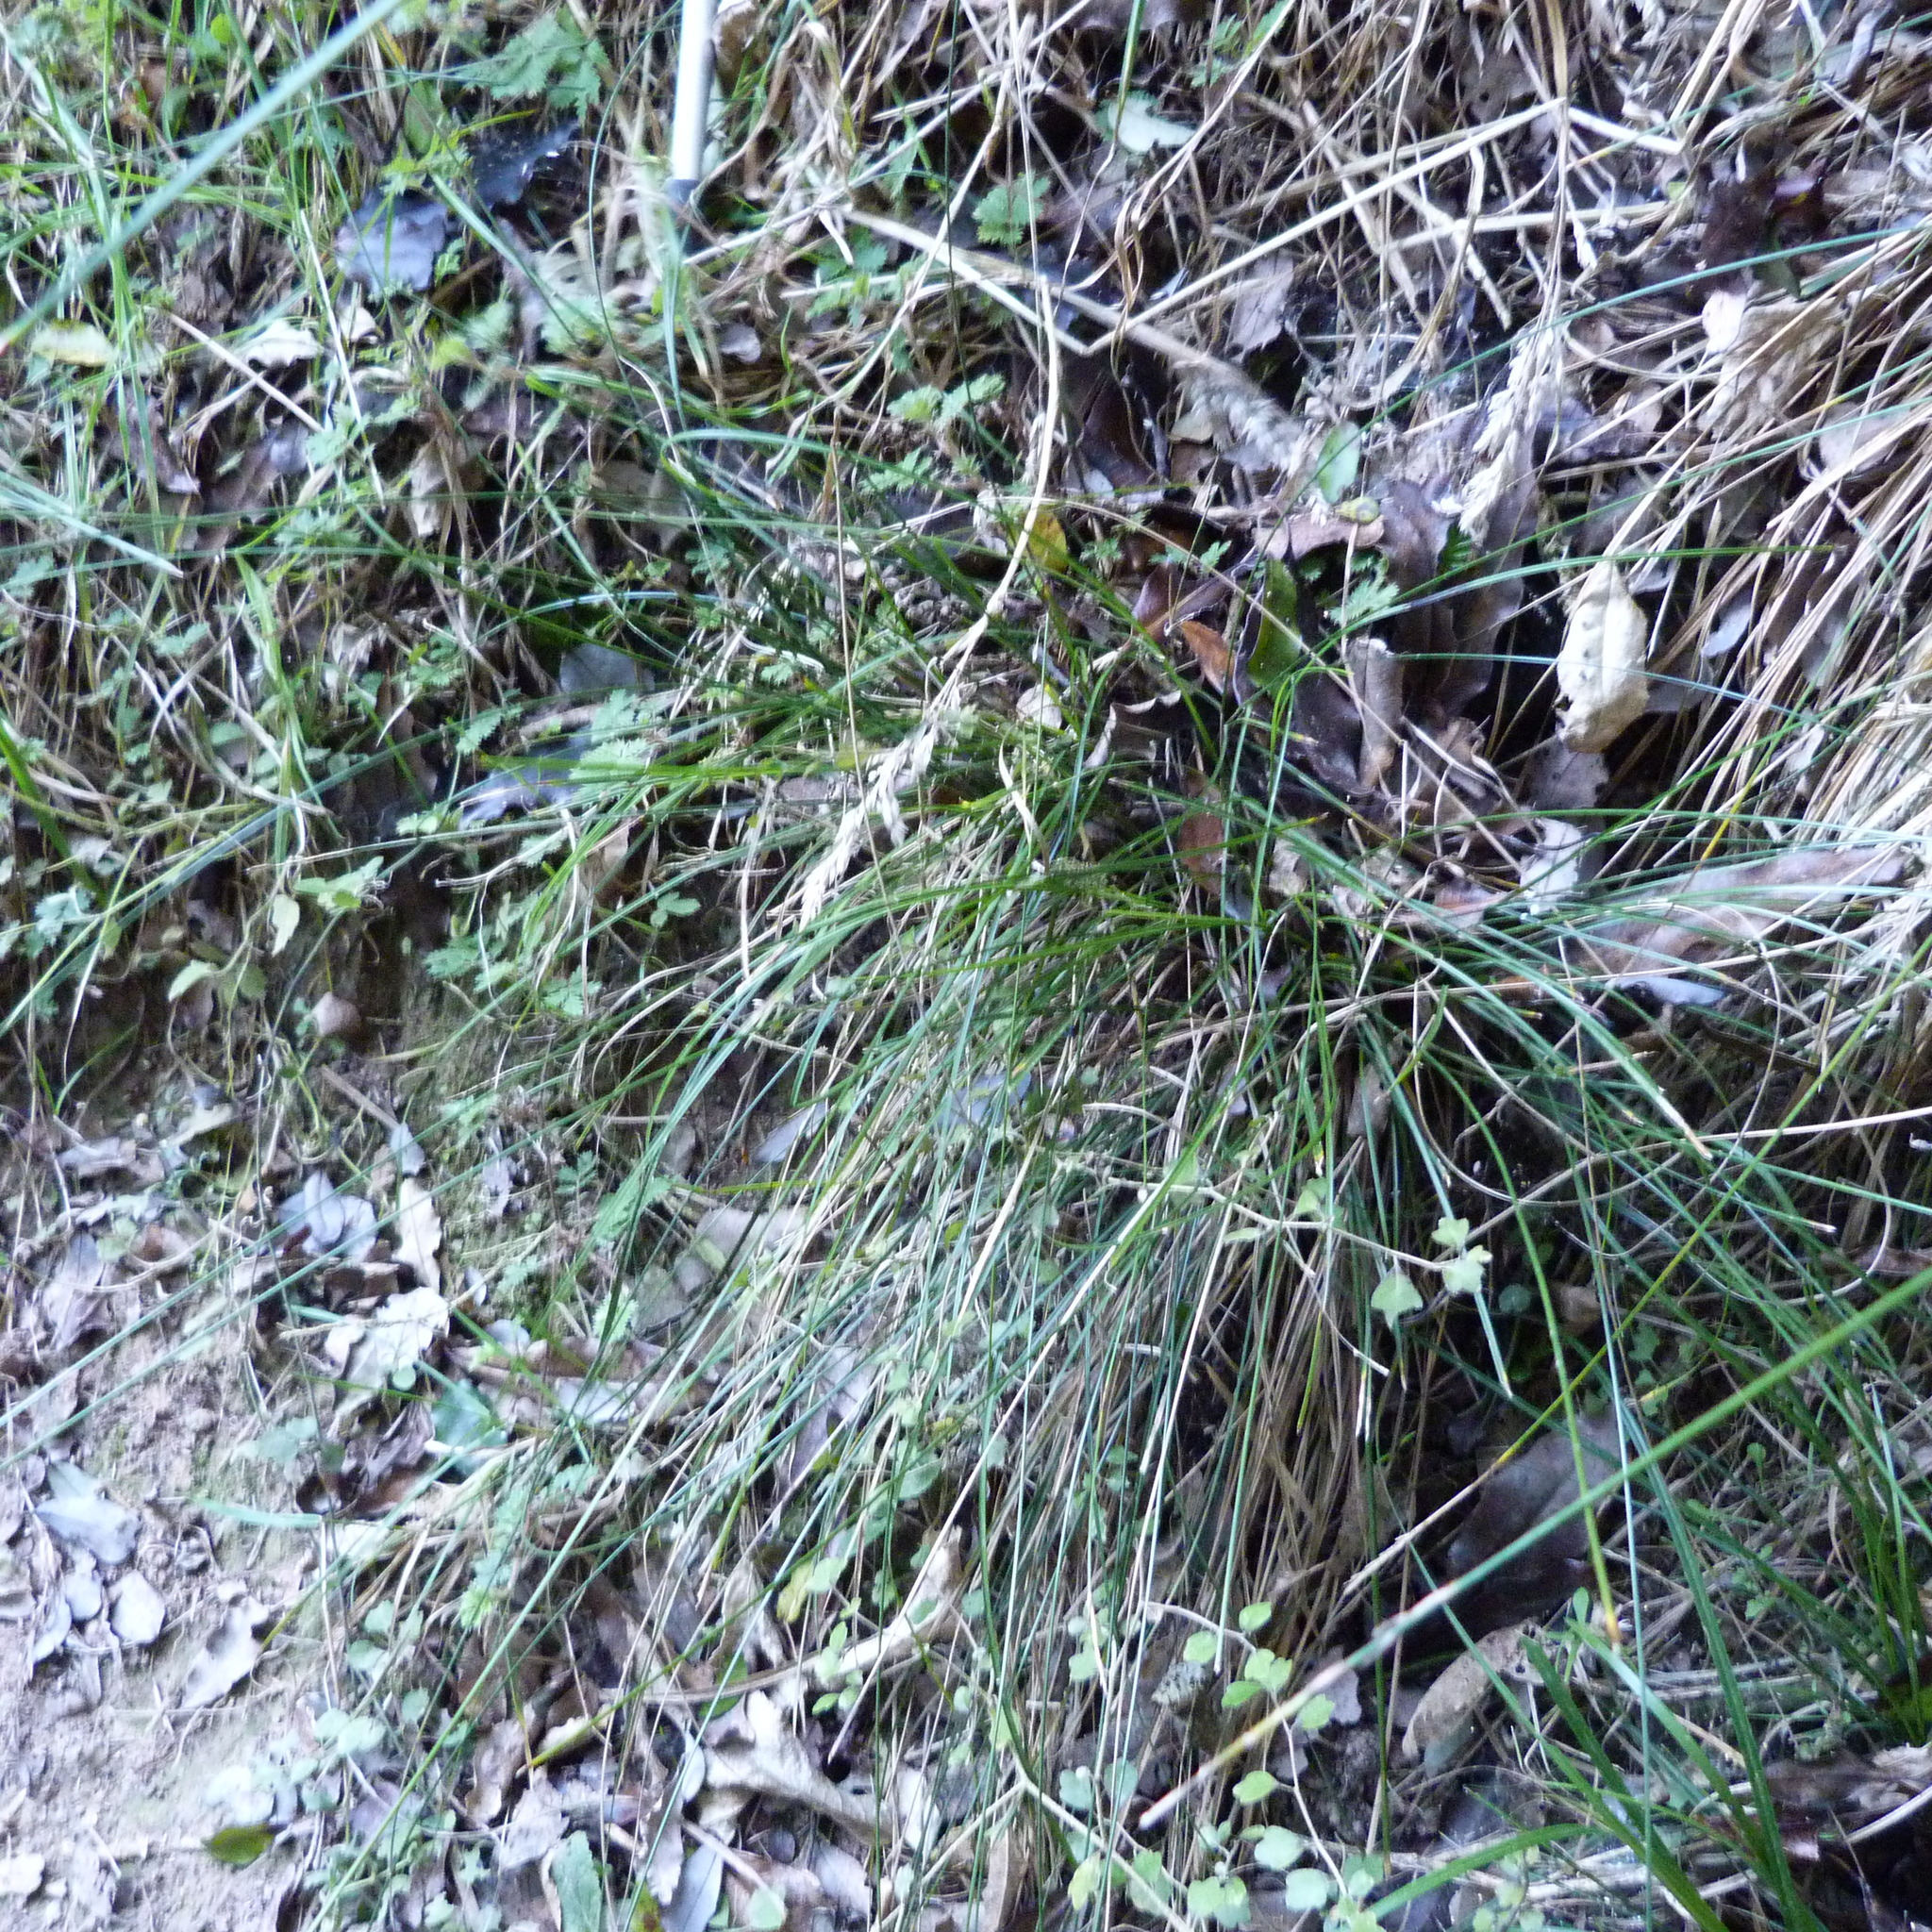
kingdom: Plantae
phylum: Tracheophyta
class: Liliopsida
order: Poales
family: Cyperaceae
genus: Carex
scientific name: Carex healyi
